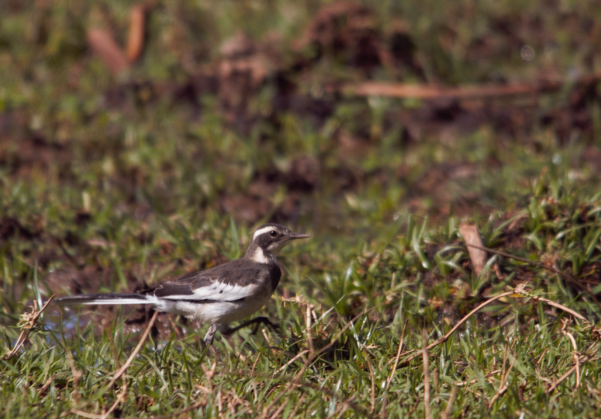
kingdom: Animalia
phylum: Chordata
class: Aves
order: Passeriformes
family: Motacillidae
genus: Motacilla
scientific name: Motacilla aguimp
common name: African pied wagtail
